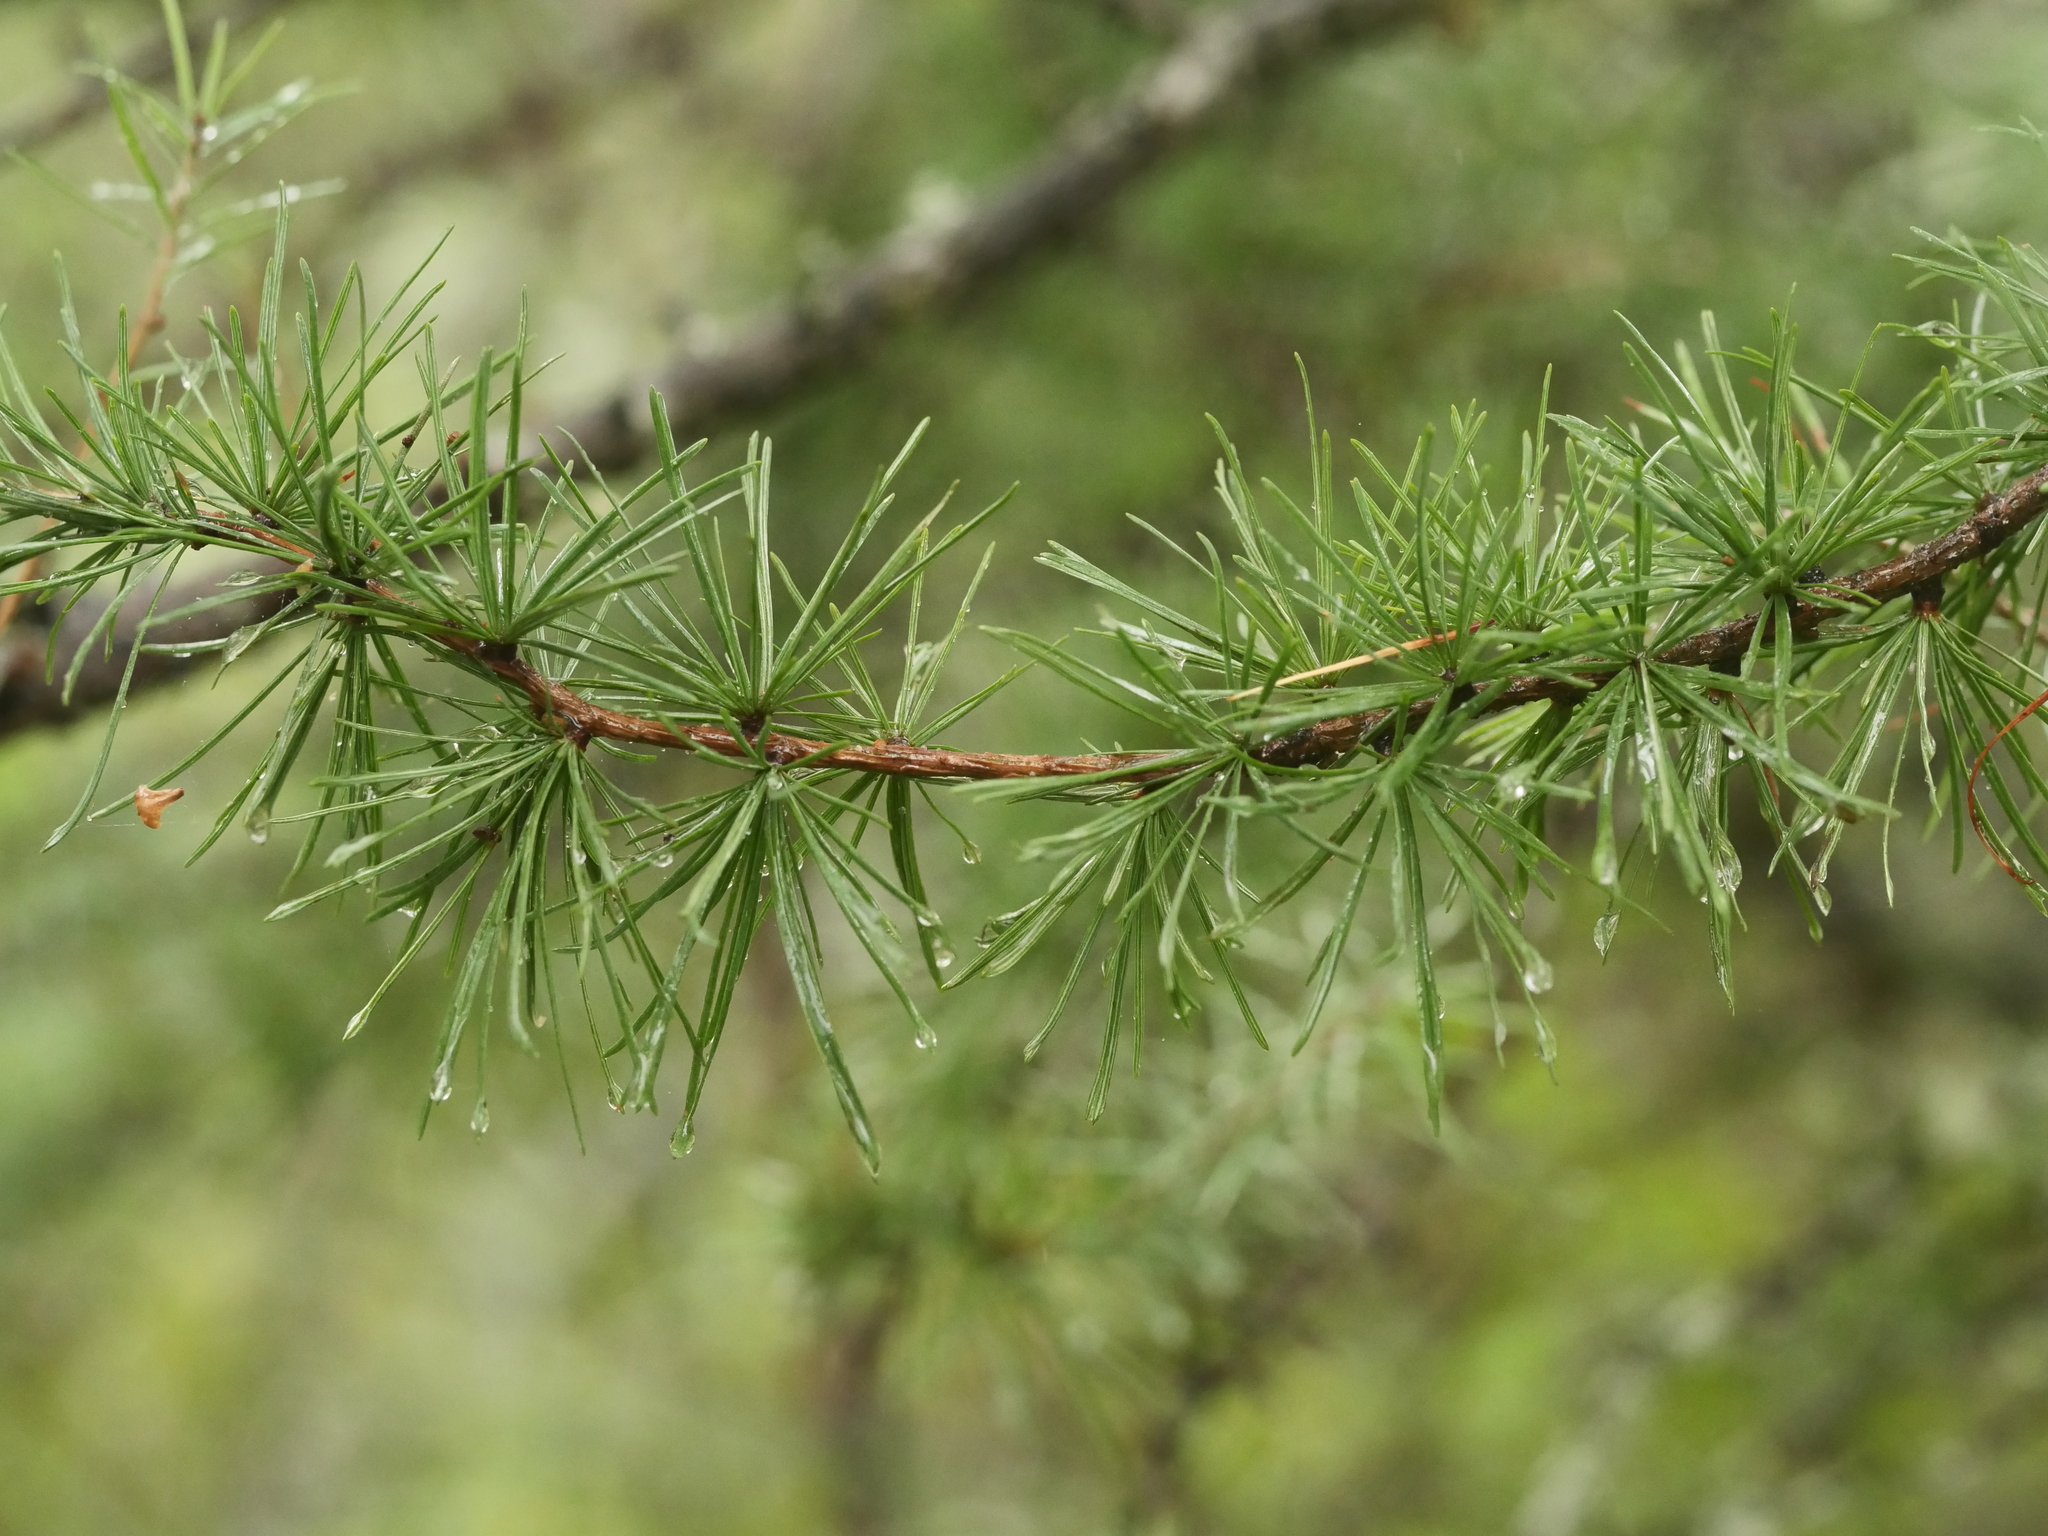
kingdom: Plantae
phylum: Tracheophyta
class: Pinopsida
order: Pinales
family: Pinaceae
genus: Larix
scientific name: Larix laricina
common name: American larch
